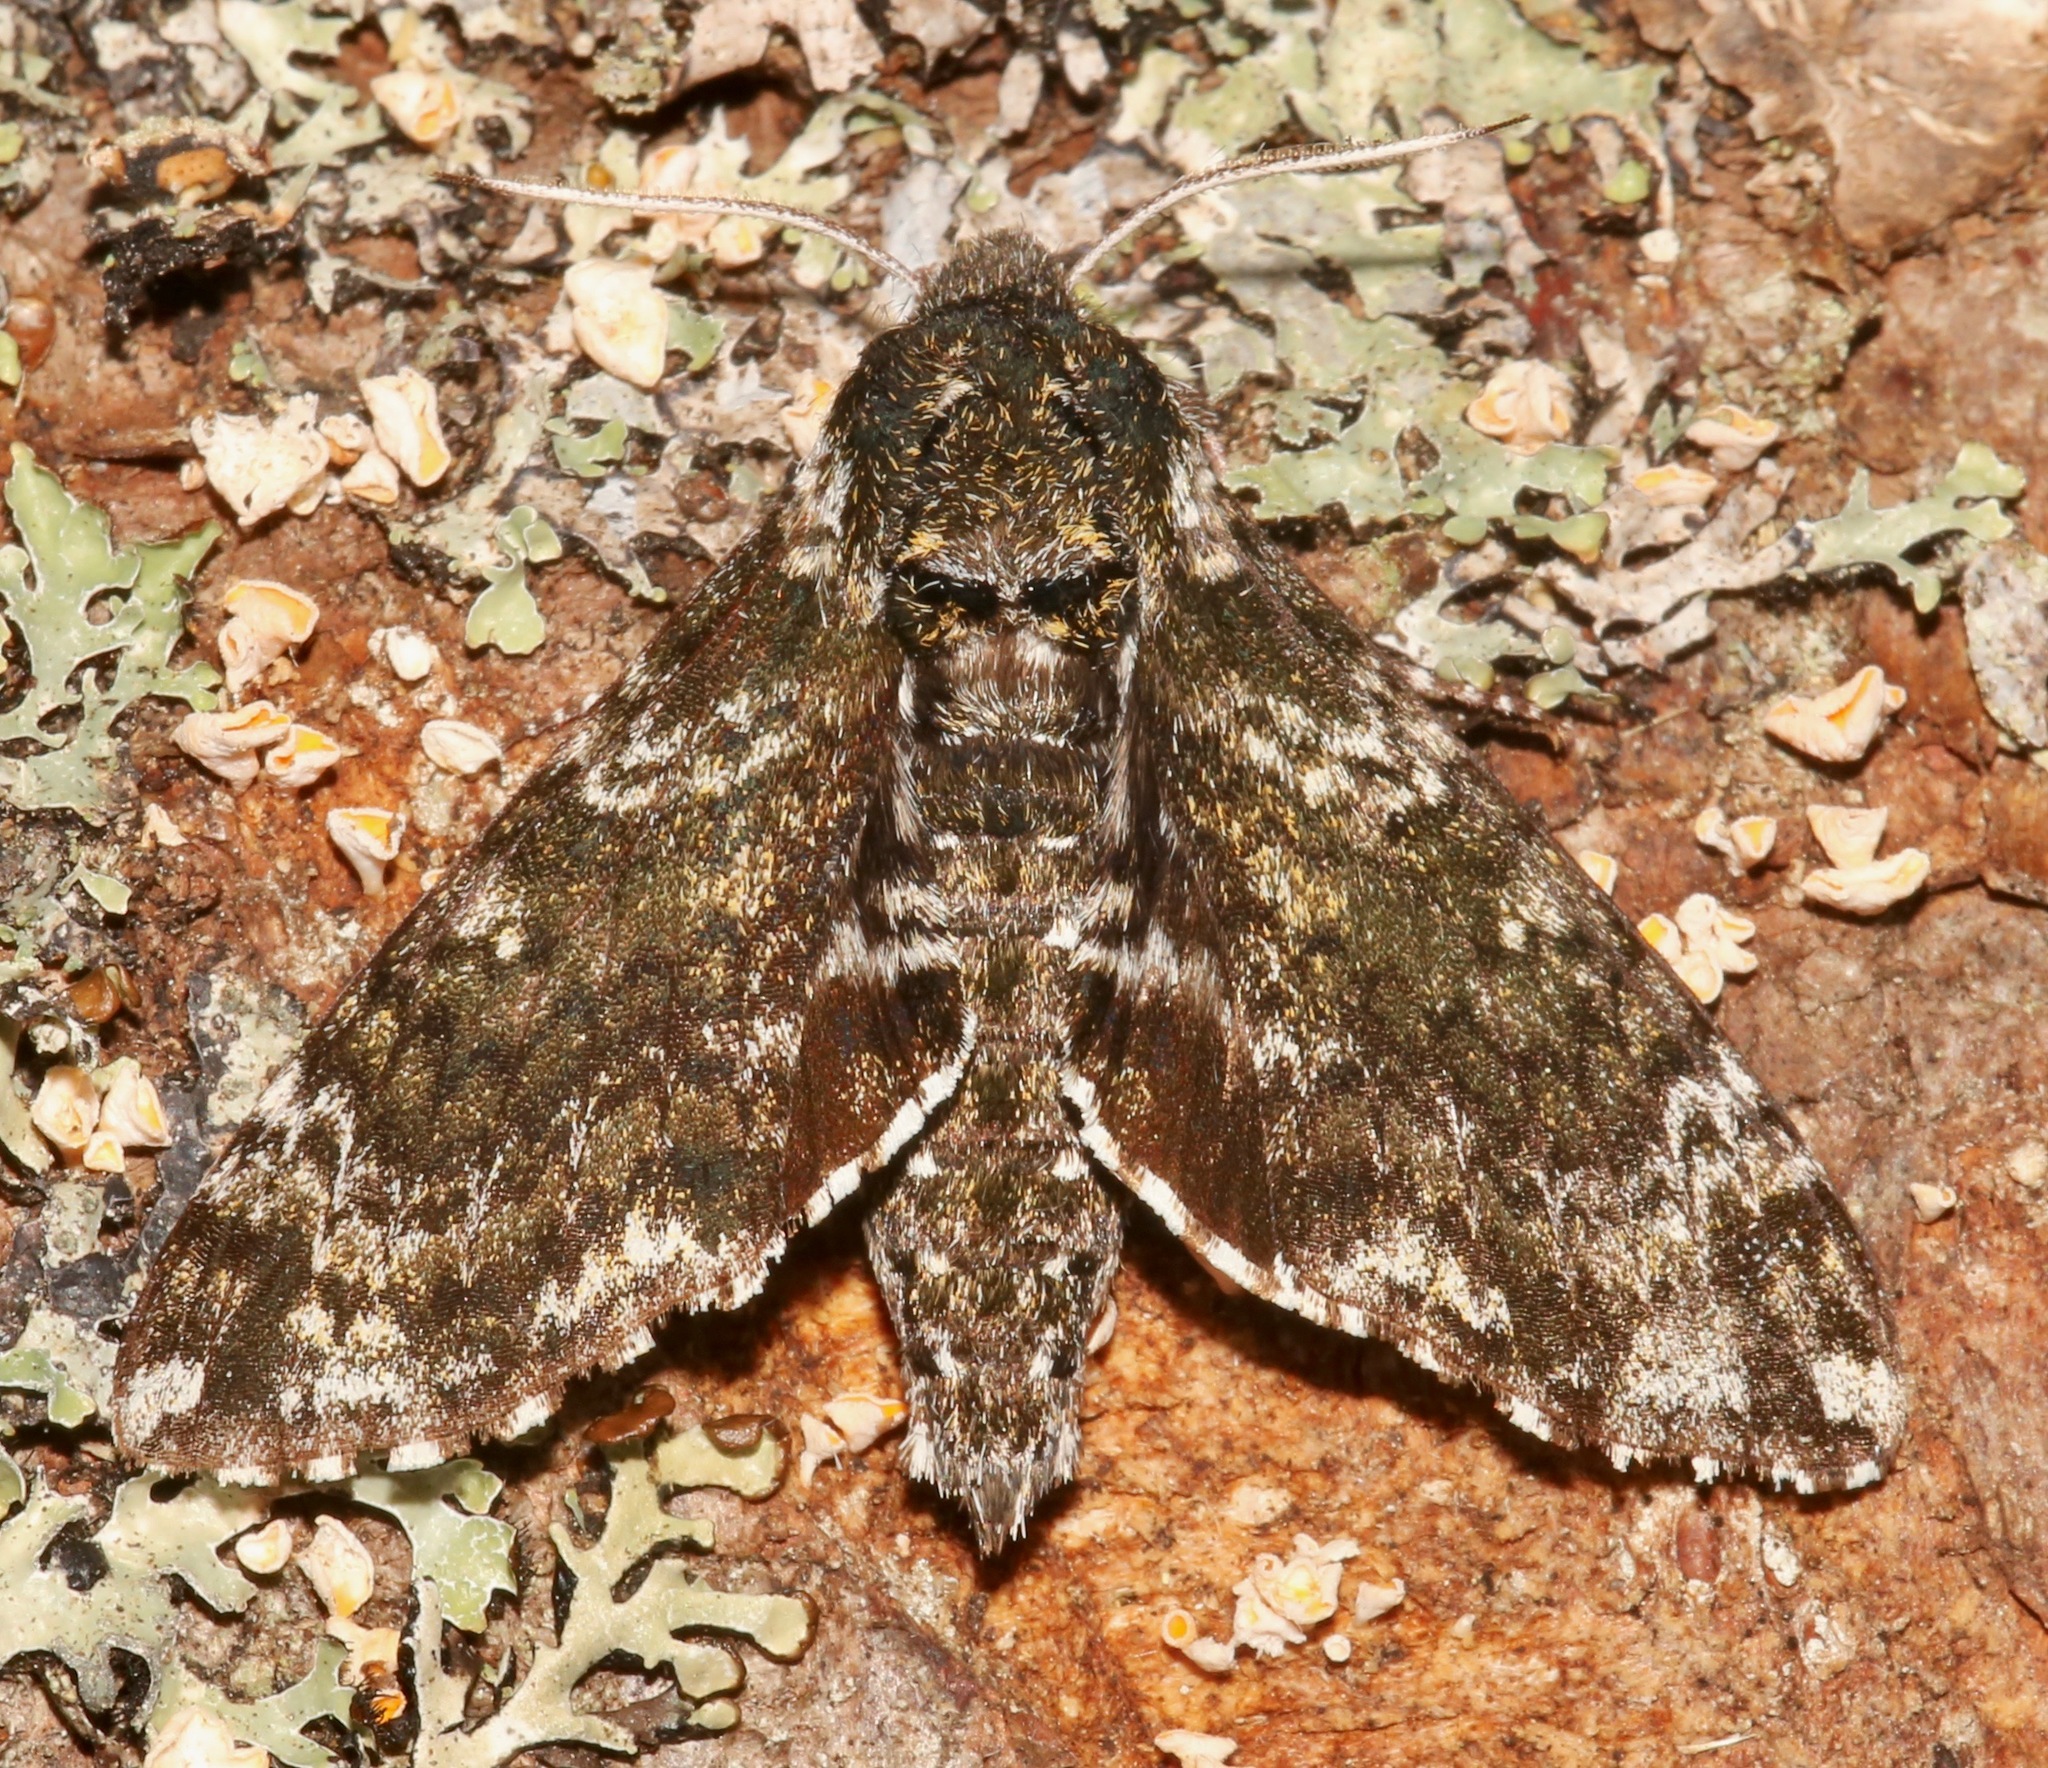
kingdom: Animalia
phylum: Arthropoda
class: Insecta
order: Lepidoptera
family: Sphingidae
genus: Dolba
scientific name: Dolba hyloeus
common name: Pawpaw sphinx
